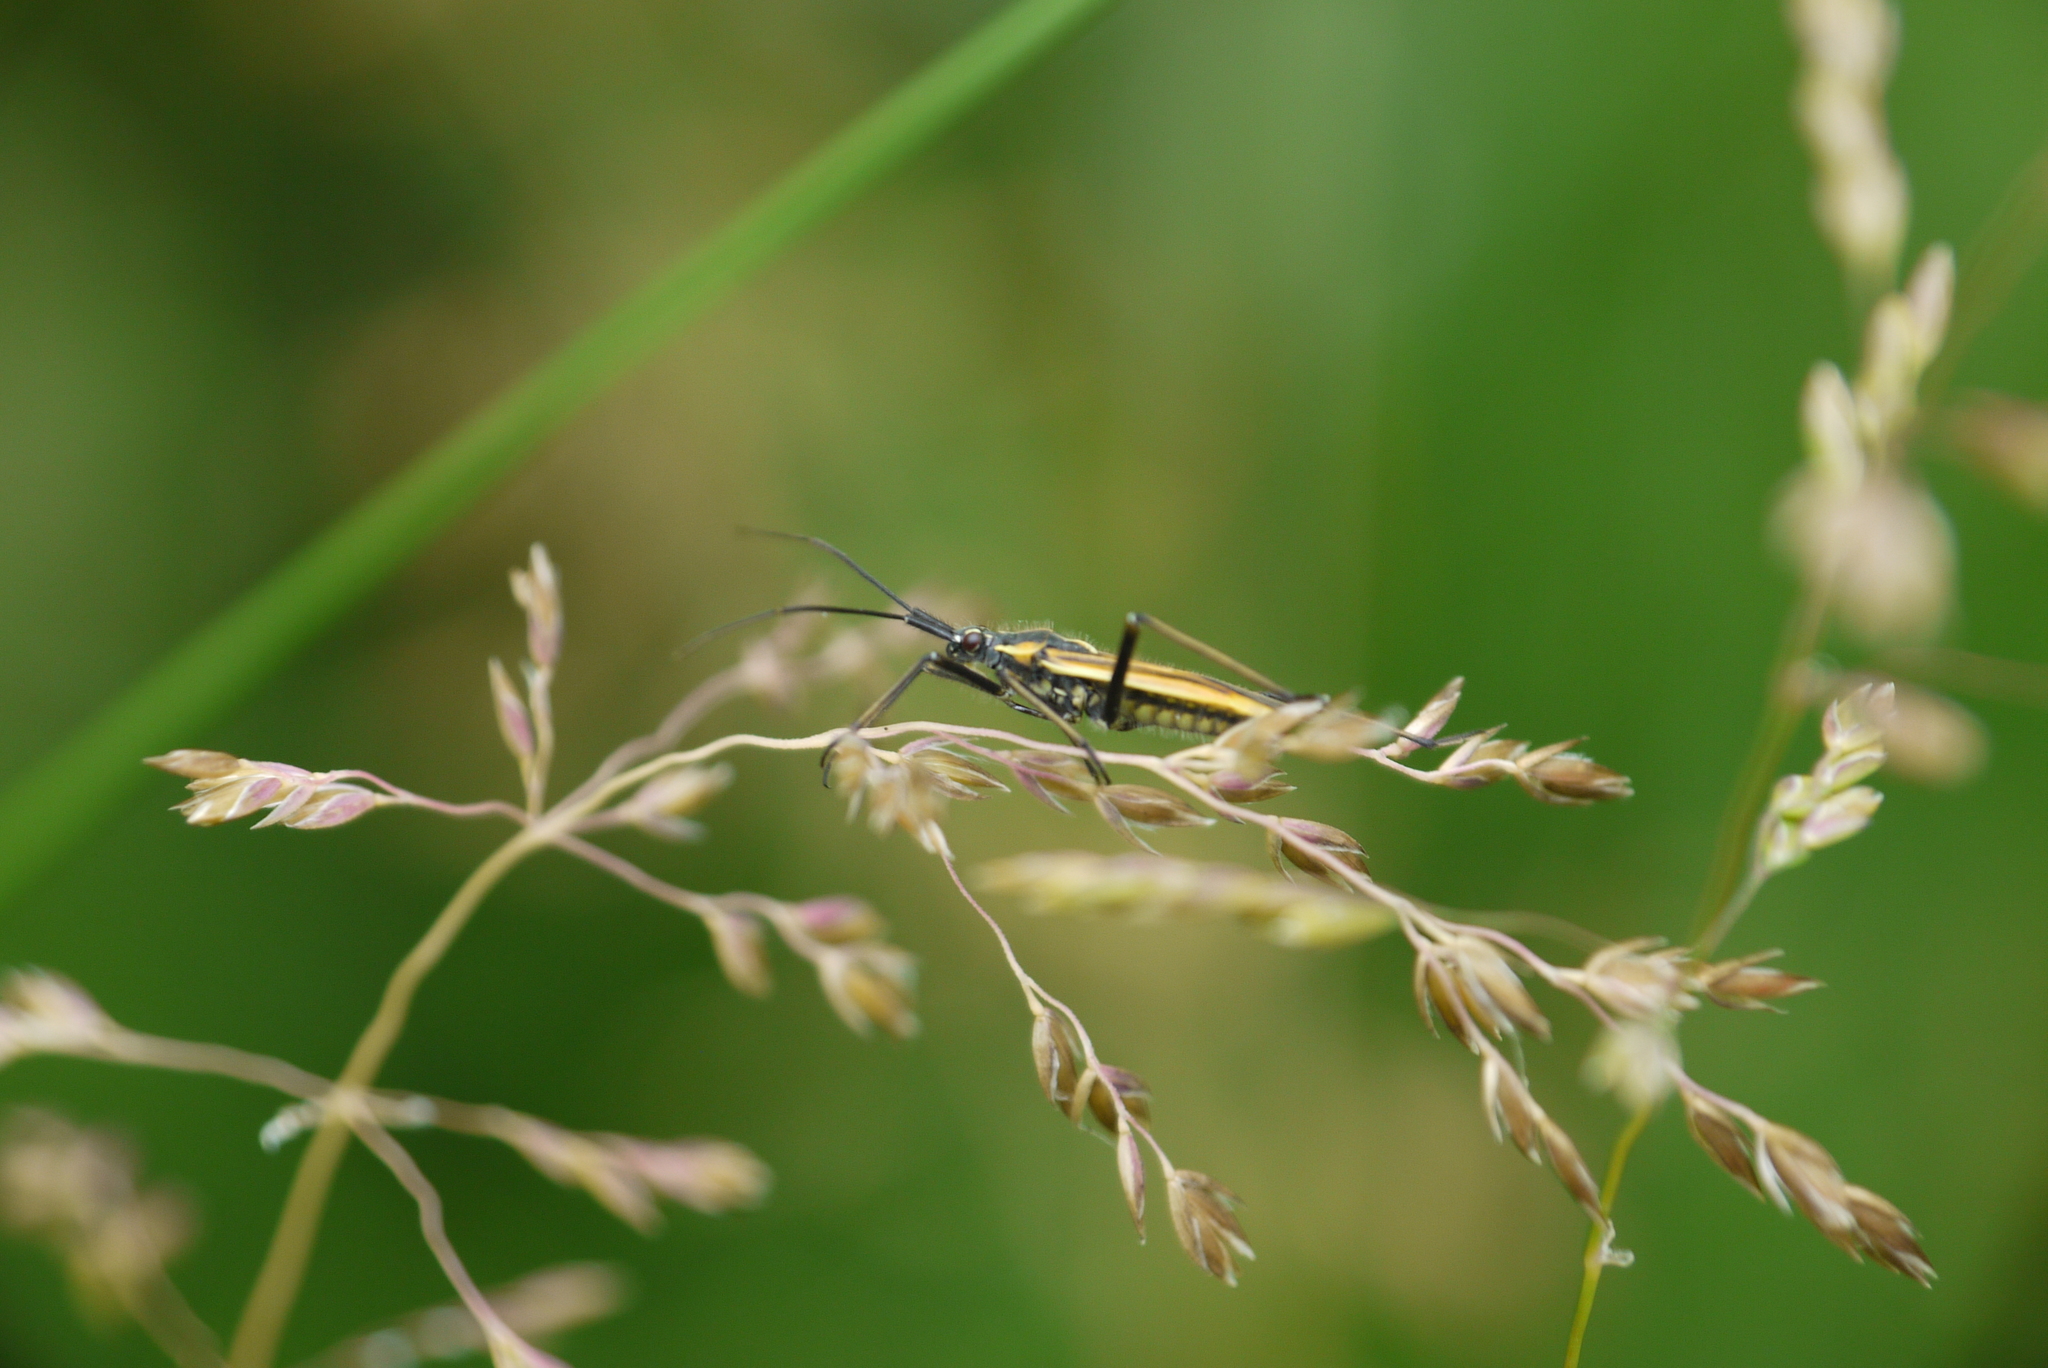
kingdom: Animalia
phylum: Arthropoda
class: Insecta
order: Hemiptera
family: Miridae
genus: Leptopterna
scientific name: Leptopterna dolabrata
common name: Meadow plant bug
